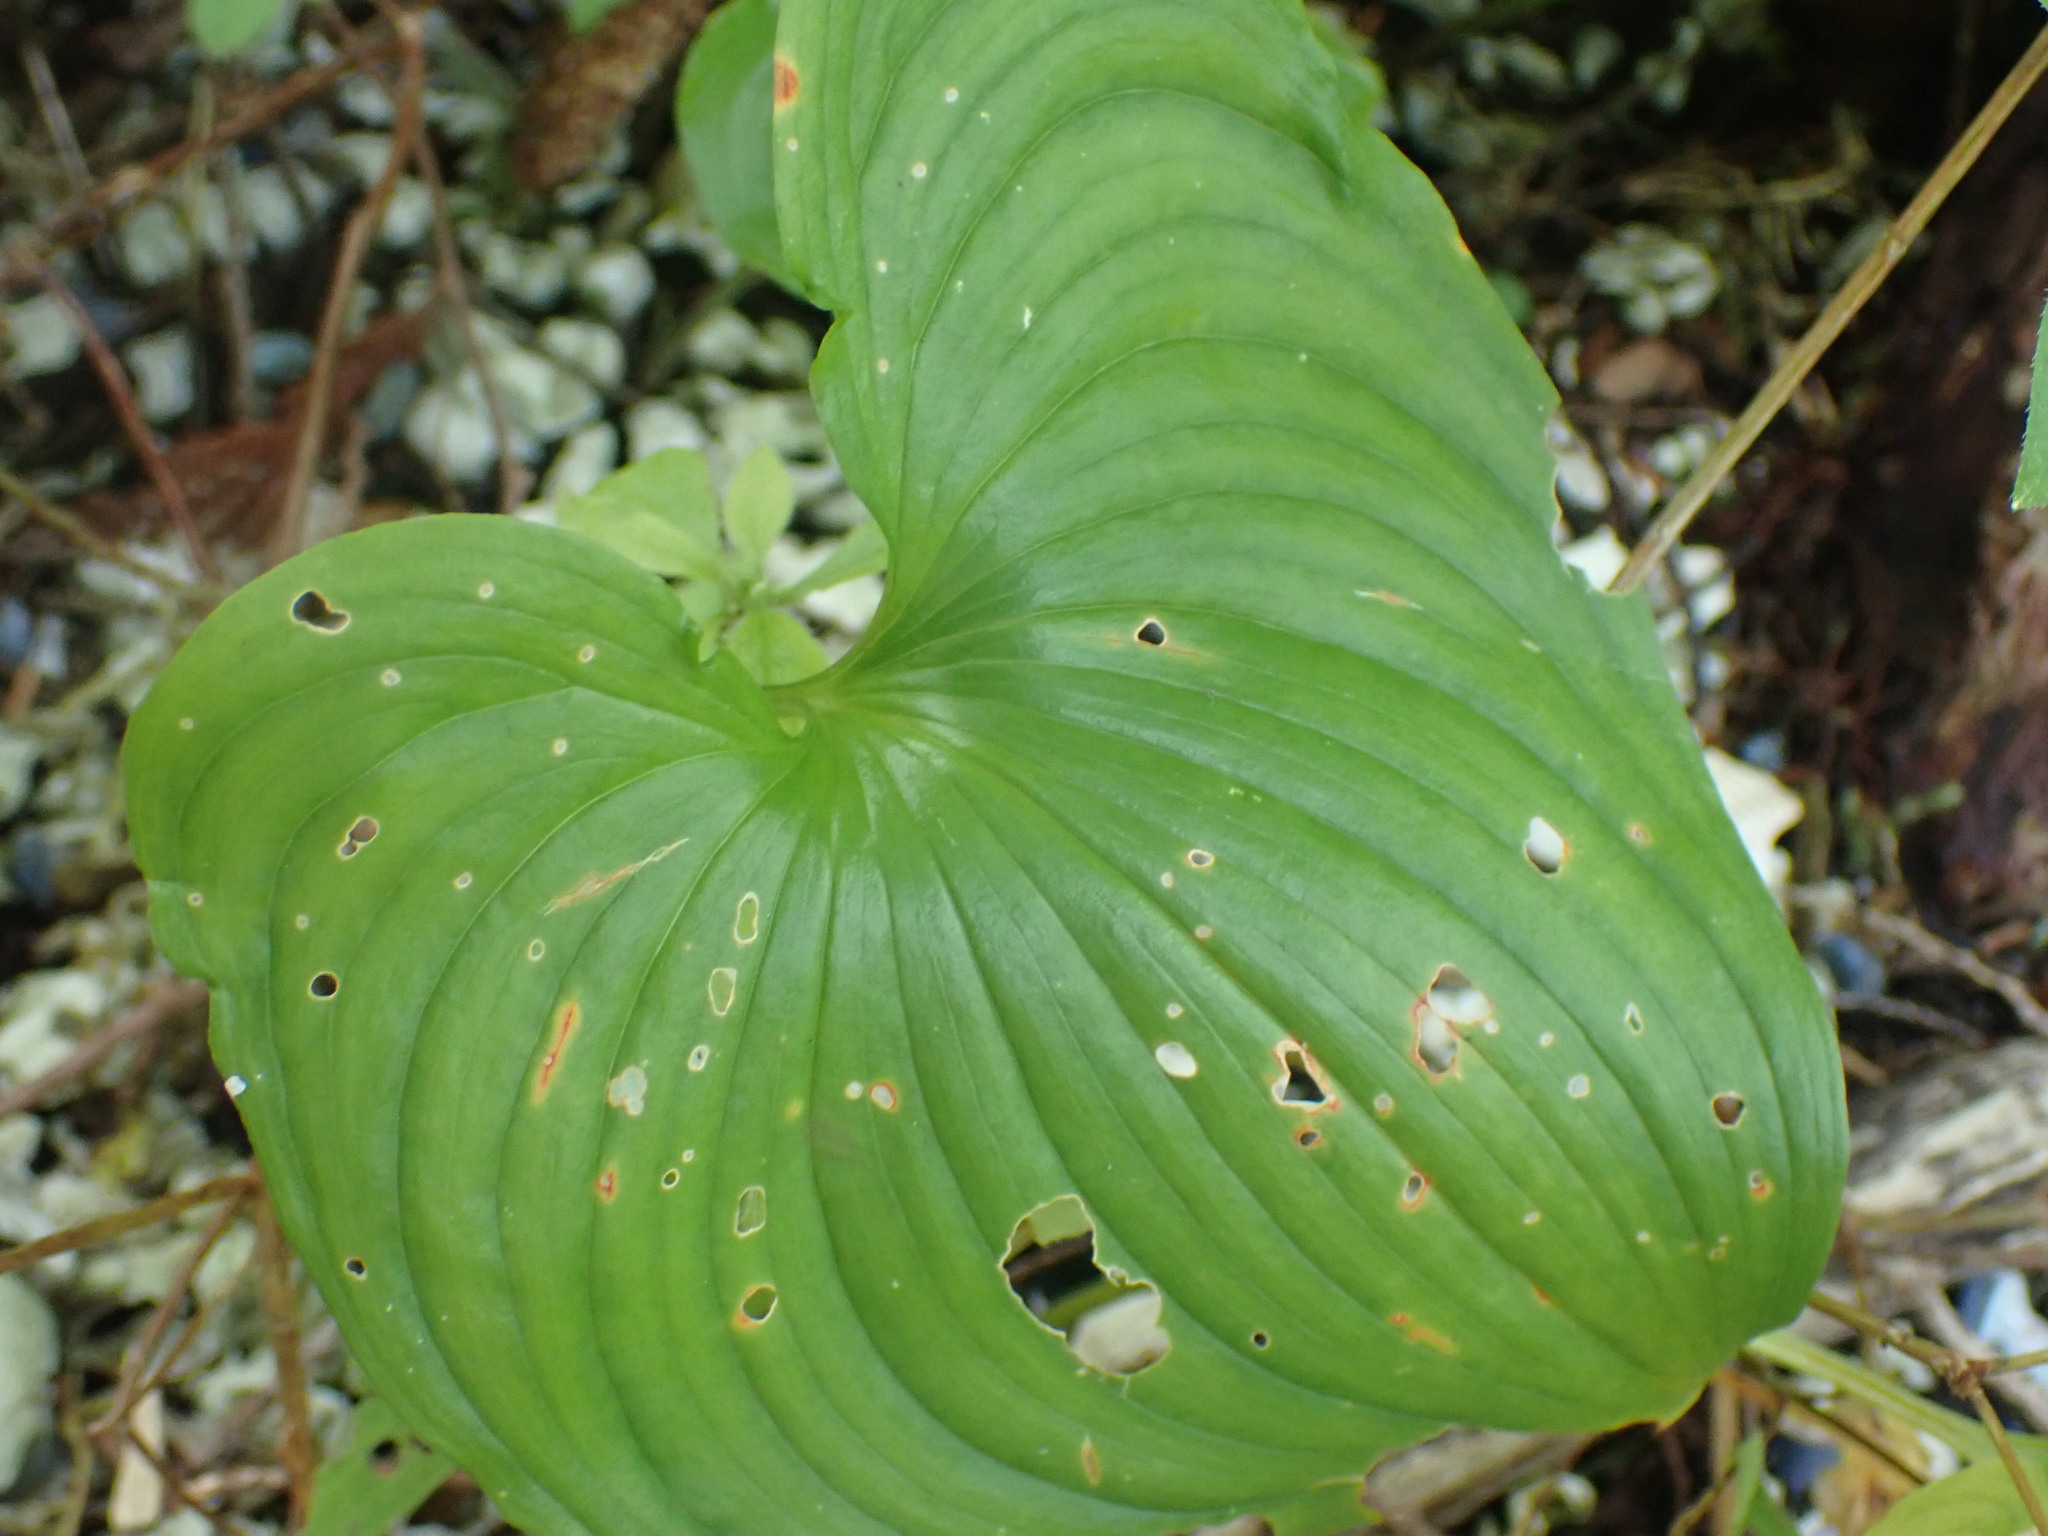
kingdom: Plantae
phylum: Tracheophyta
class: Liliopsida
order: Asparagales
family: Asparagaceae
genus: Maianthemum
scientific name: Maianthemum dilatatum
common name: False lily-of-the-valley
